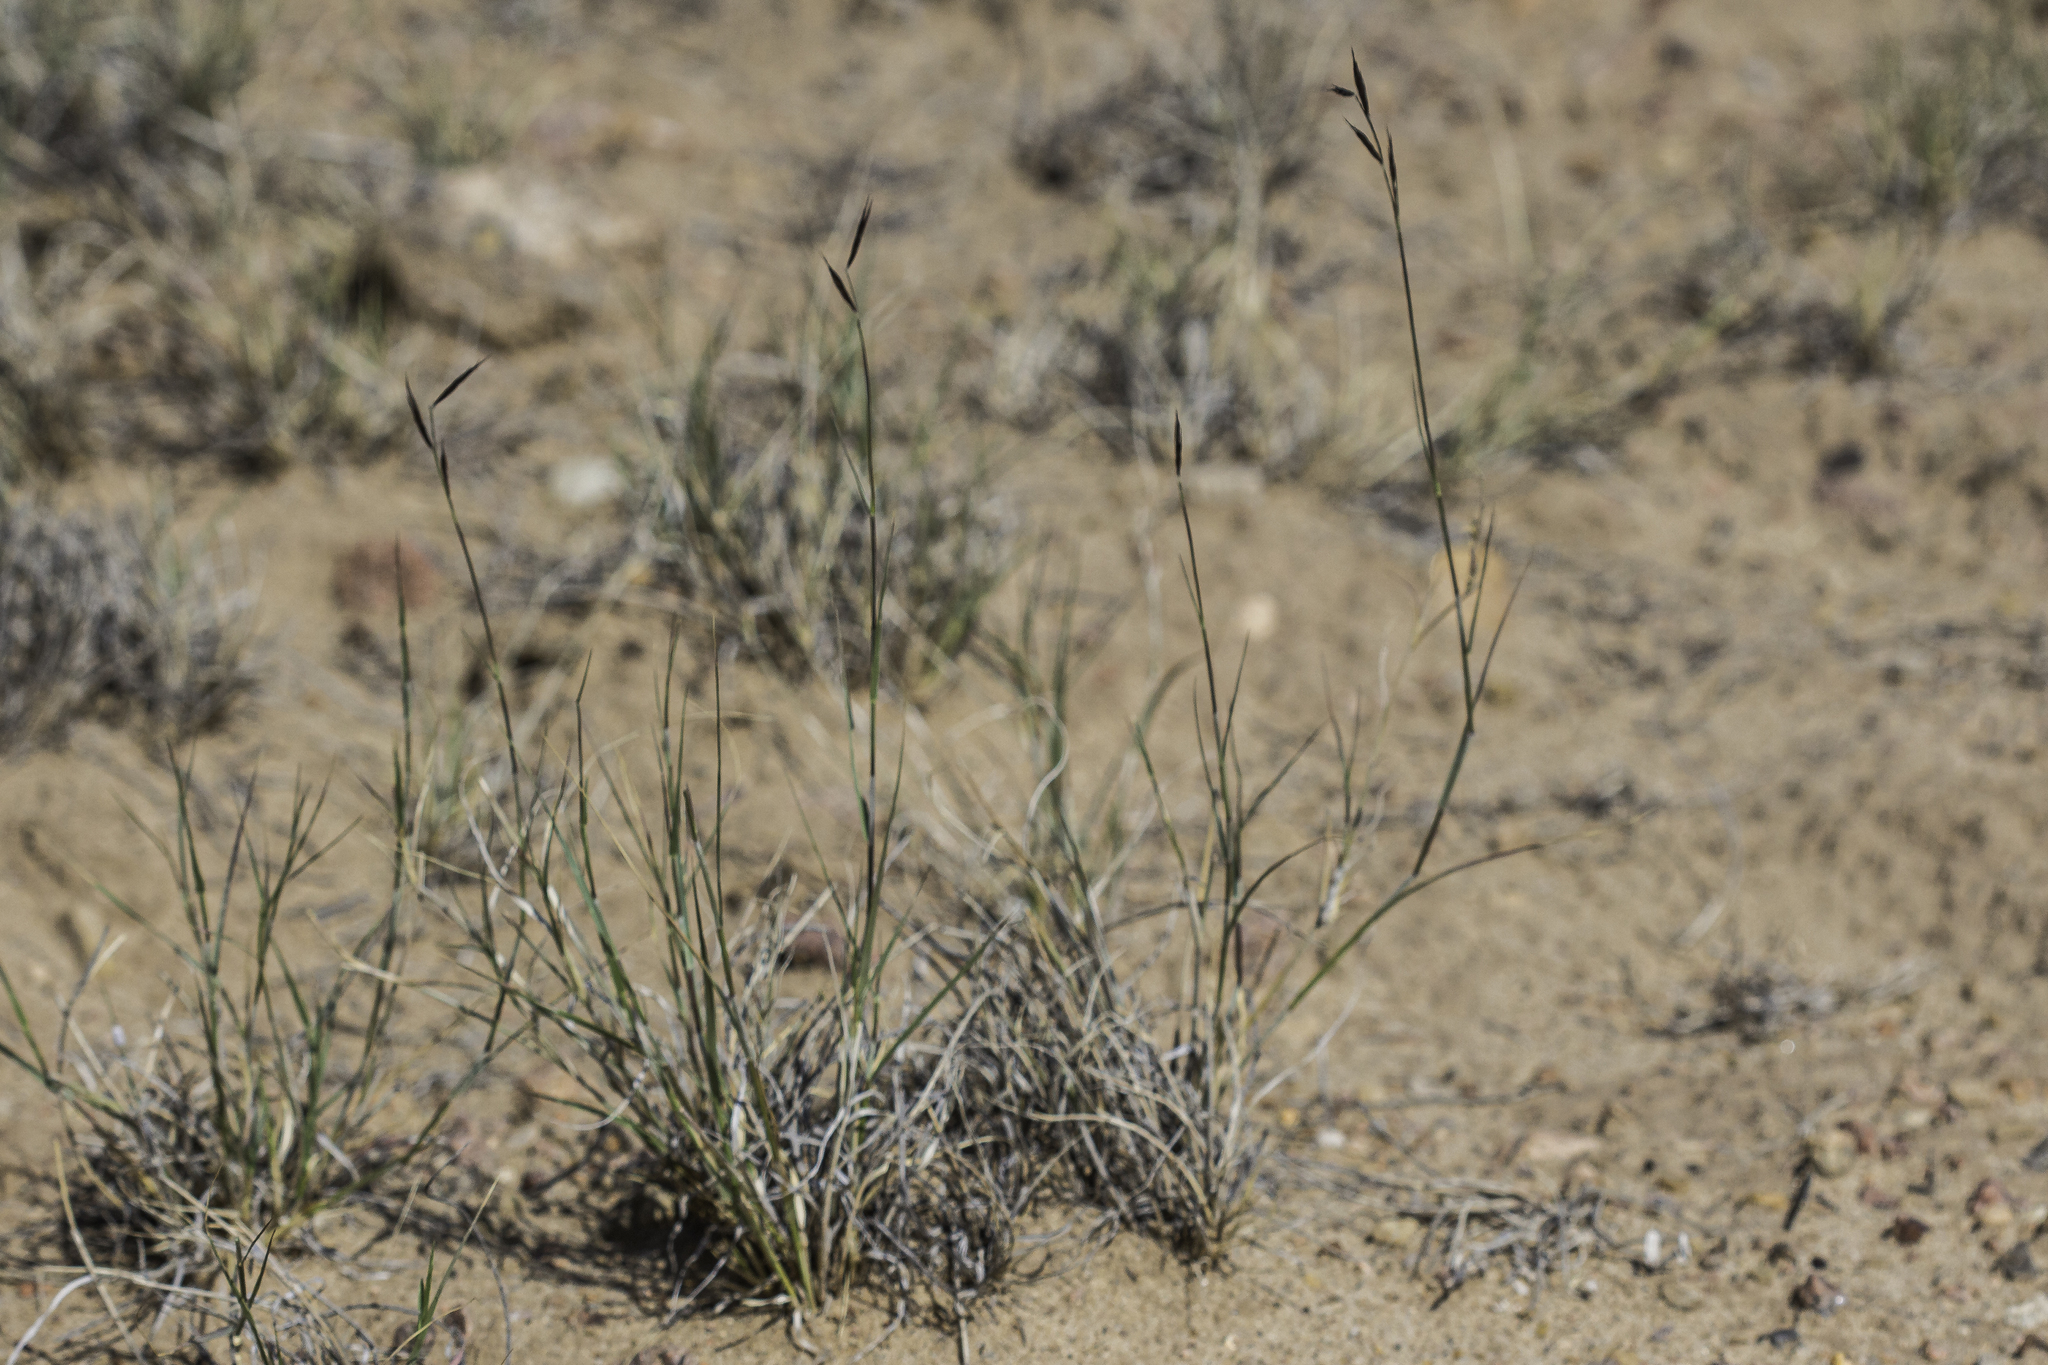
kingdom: Plantae
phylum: Tracheophyta
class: Liliopsida
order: Poales
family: Poaceae
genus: Bouteloua
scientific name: Bouteloua eriopoda
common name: Woolly foot grama
